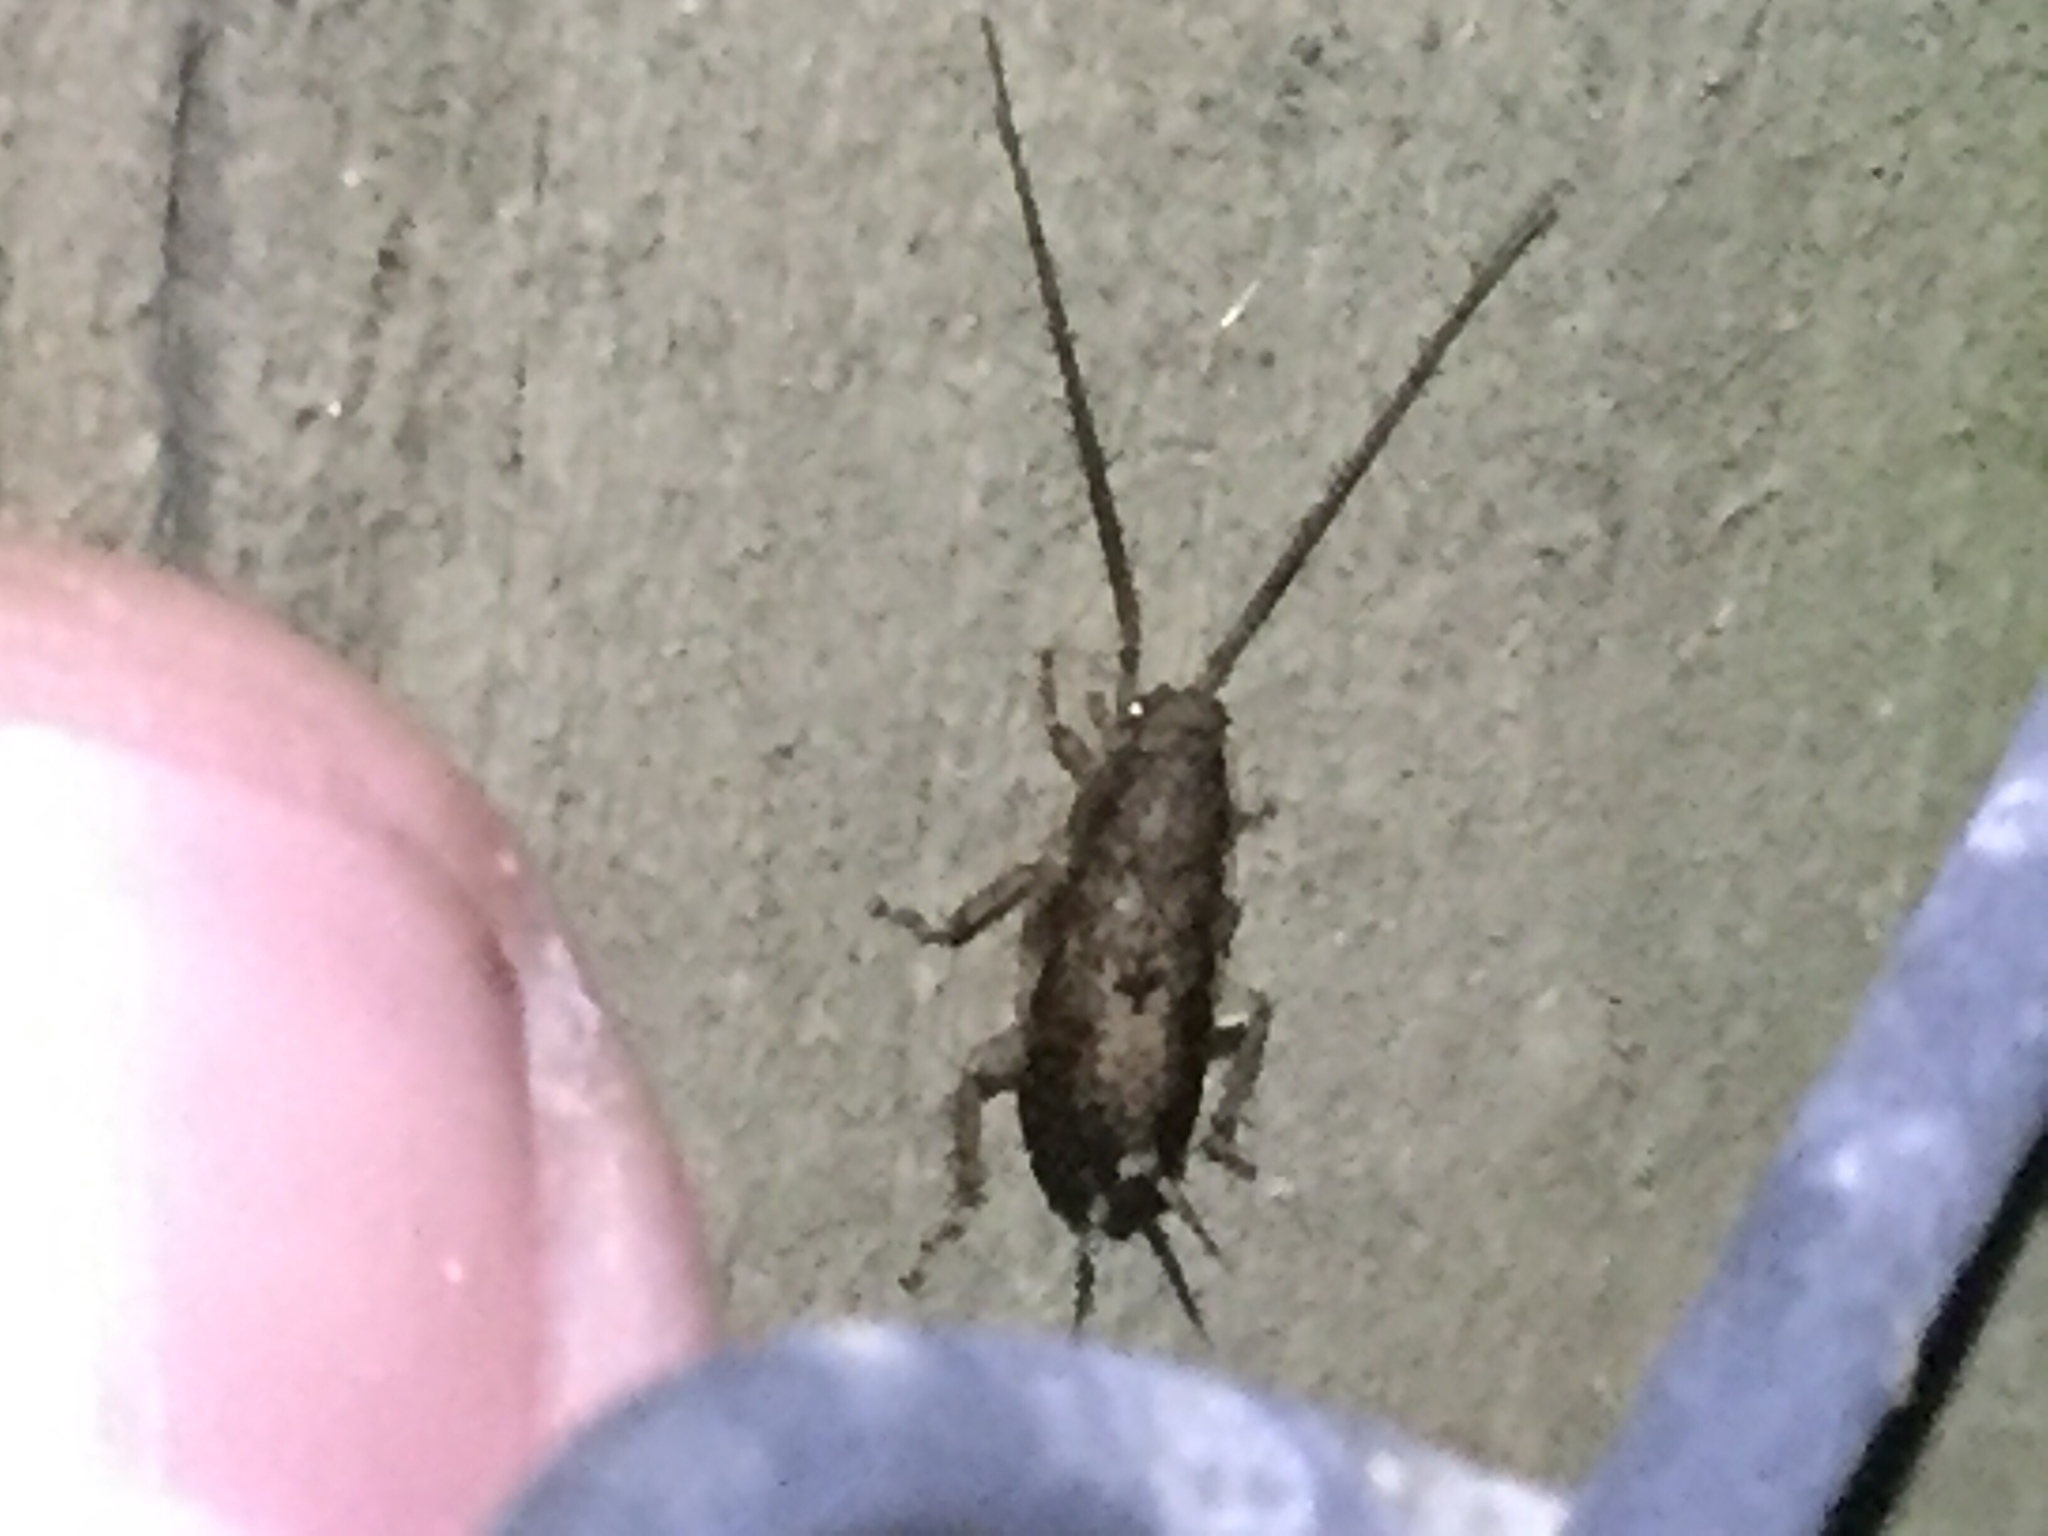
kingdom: Animalia
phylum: Arthropoda
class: Insecta
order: Blattodea
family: Ectobiidae
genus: Parellipsidion
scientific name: Parellipsidion latipenne
